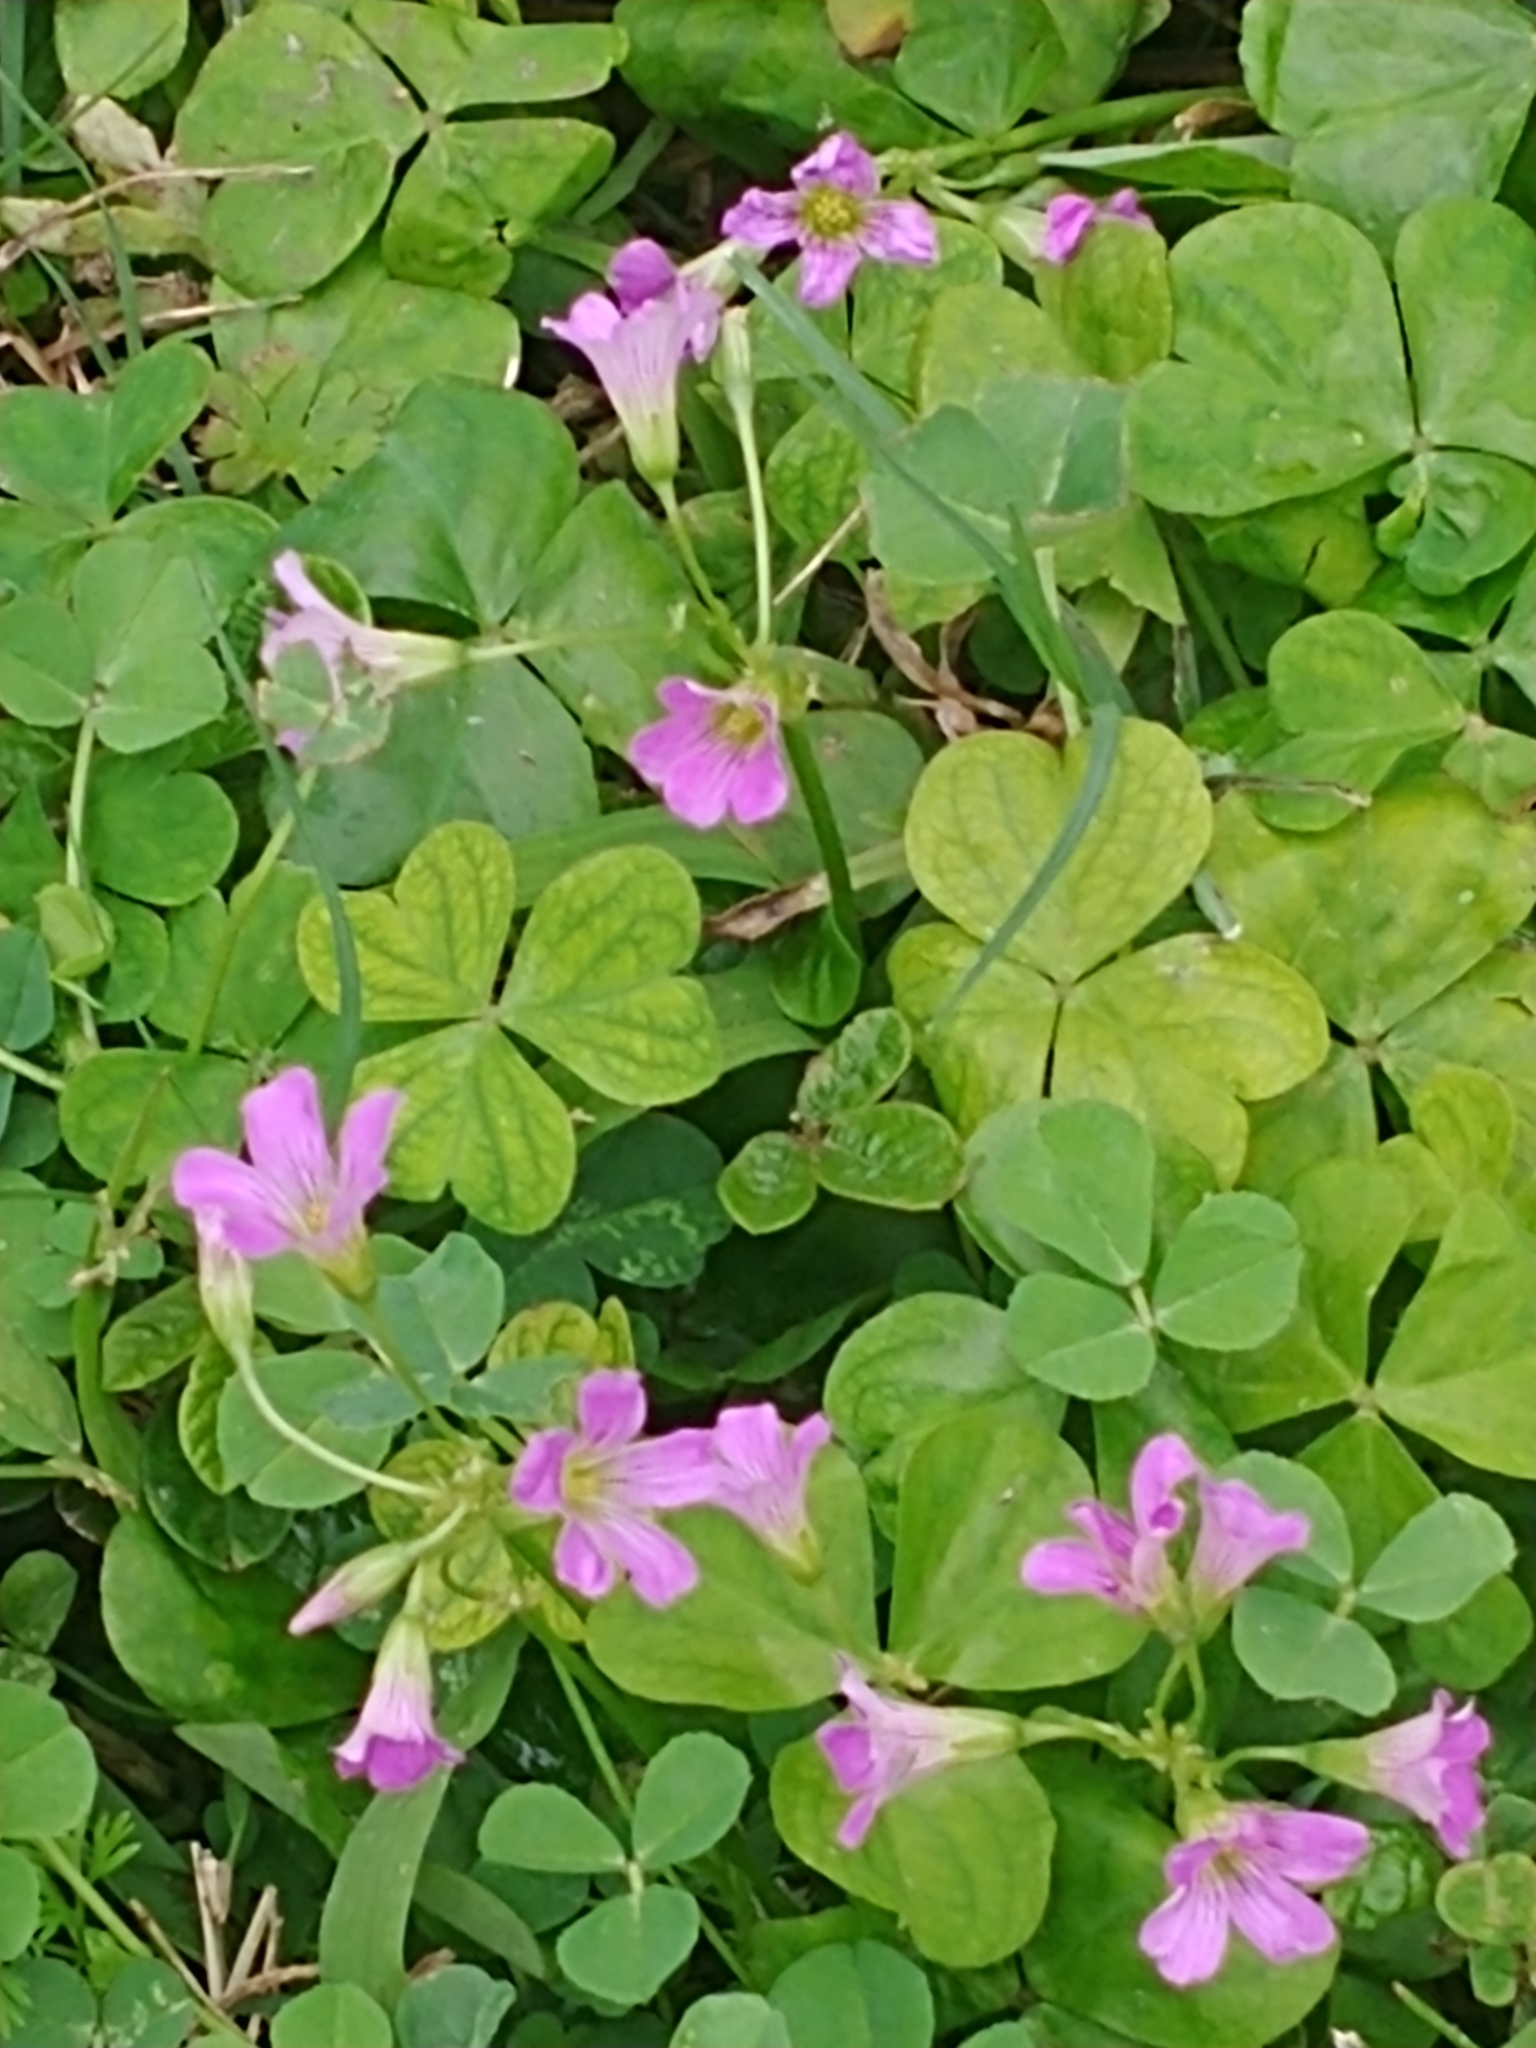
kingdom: Plantae
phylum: Tracheophyta
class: Magnoliopsida
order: Oxalidales
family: Oxalidaceae
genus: Oxalis
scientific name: Oxalis debilis
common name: Large-flowered pink-sorrel
